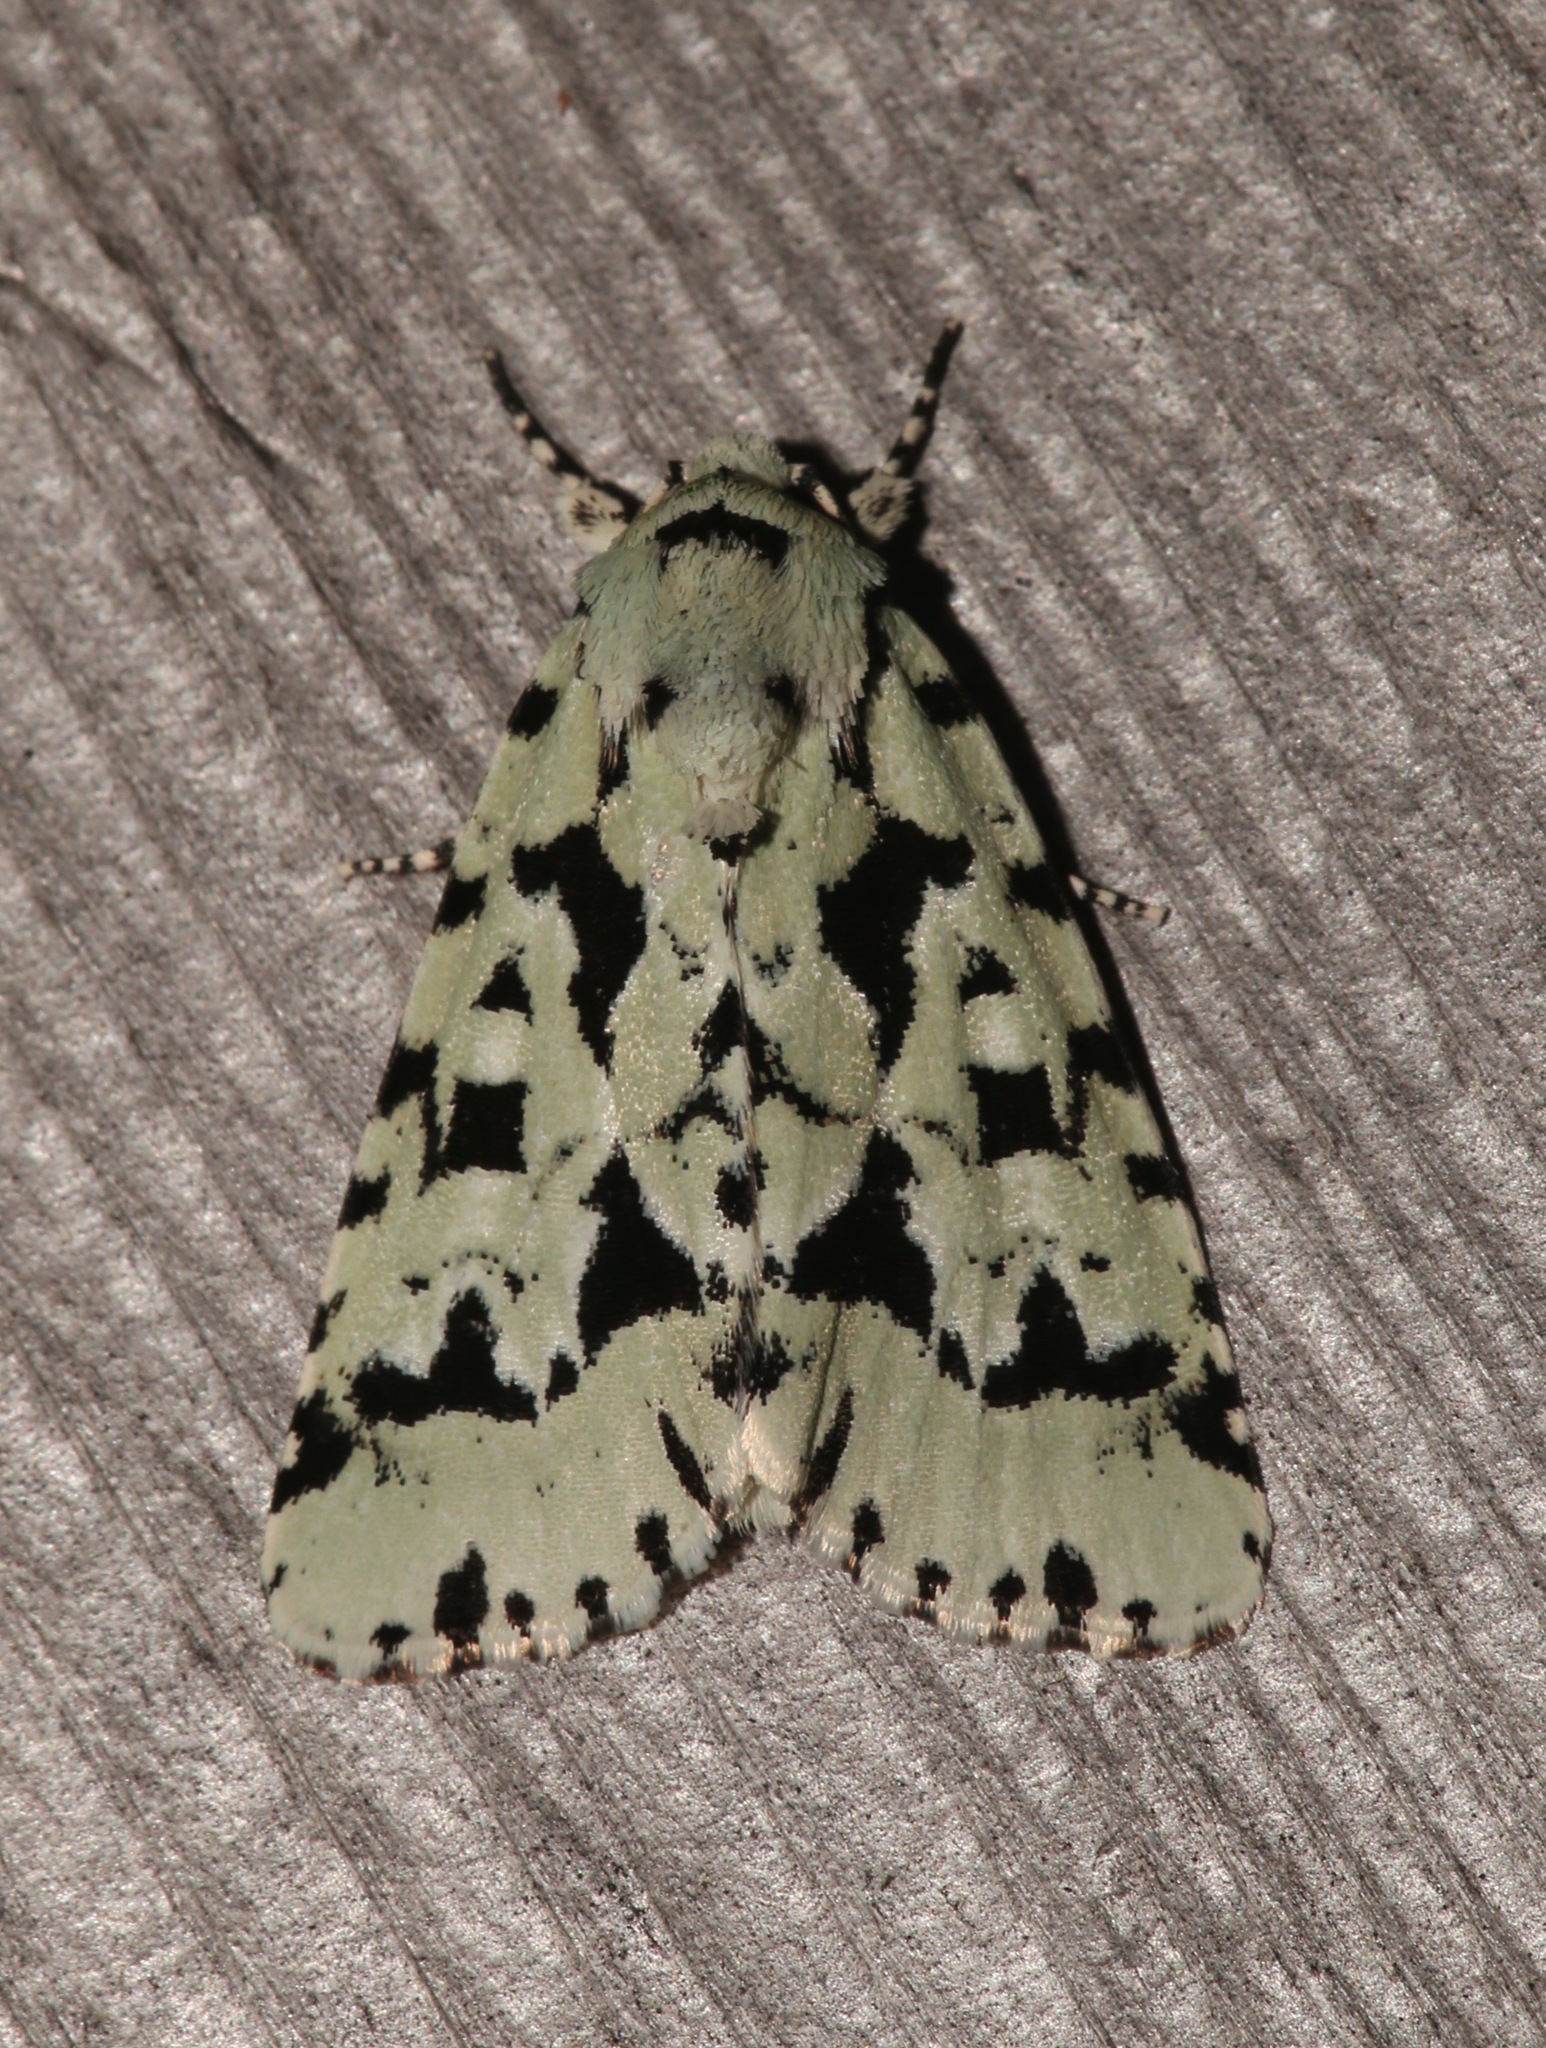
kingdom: Animalia
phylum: Arthropoda
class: Insecta
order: Lepidoptera
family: Noctuidae
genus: Acronicta
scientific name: Acronicta fallax
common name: Green marvel
